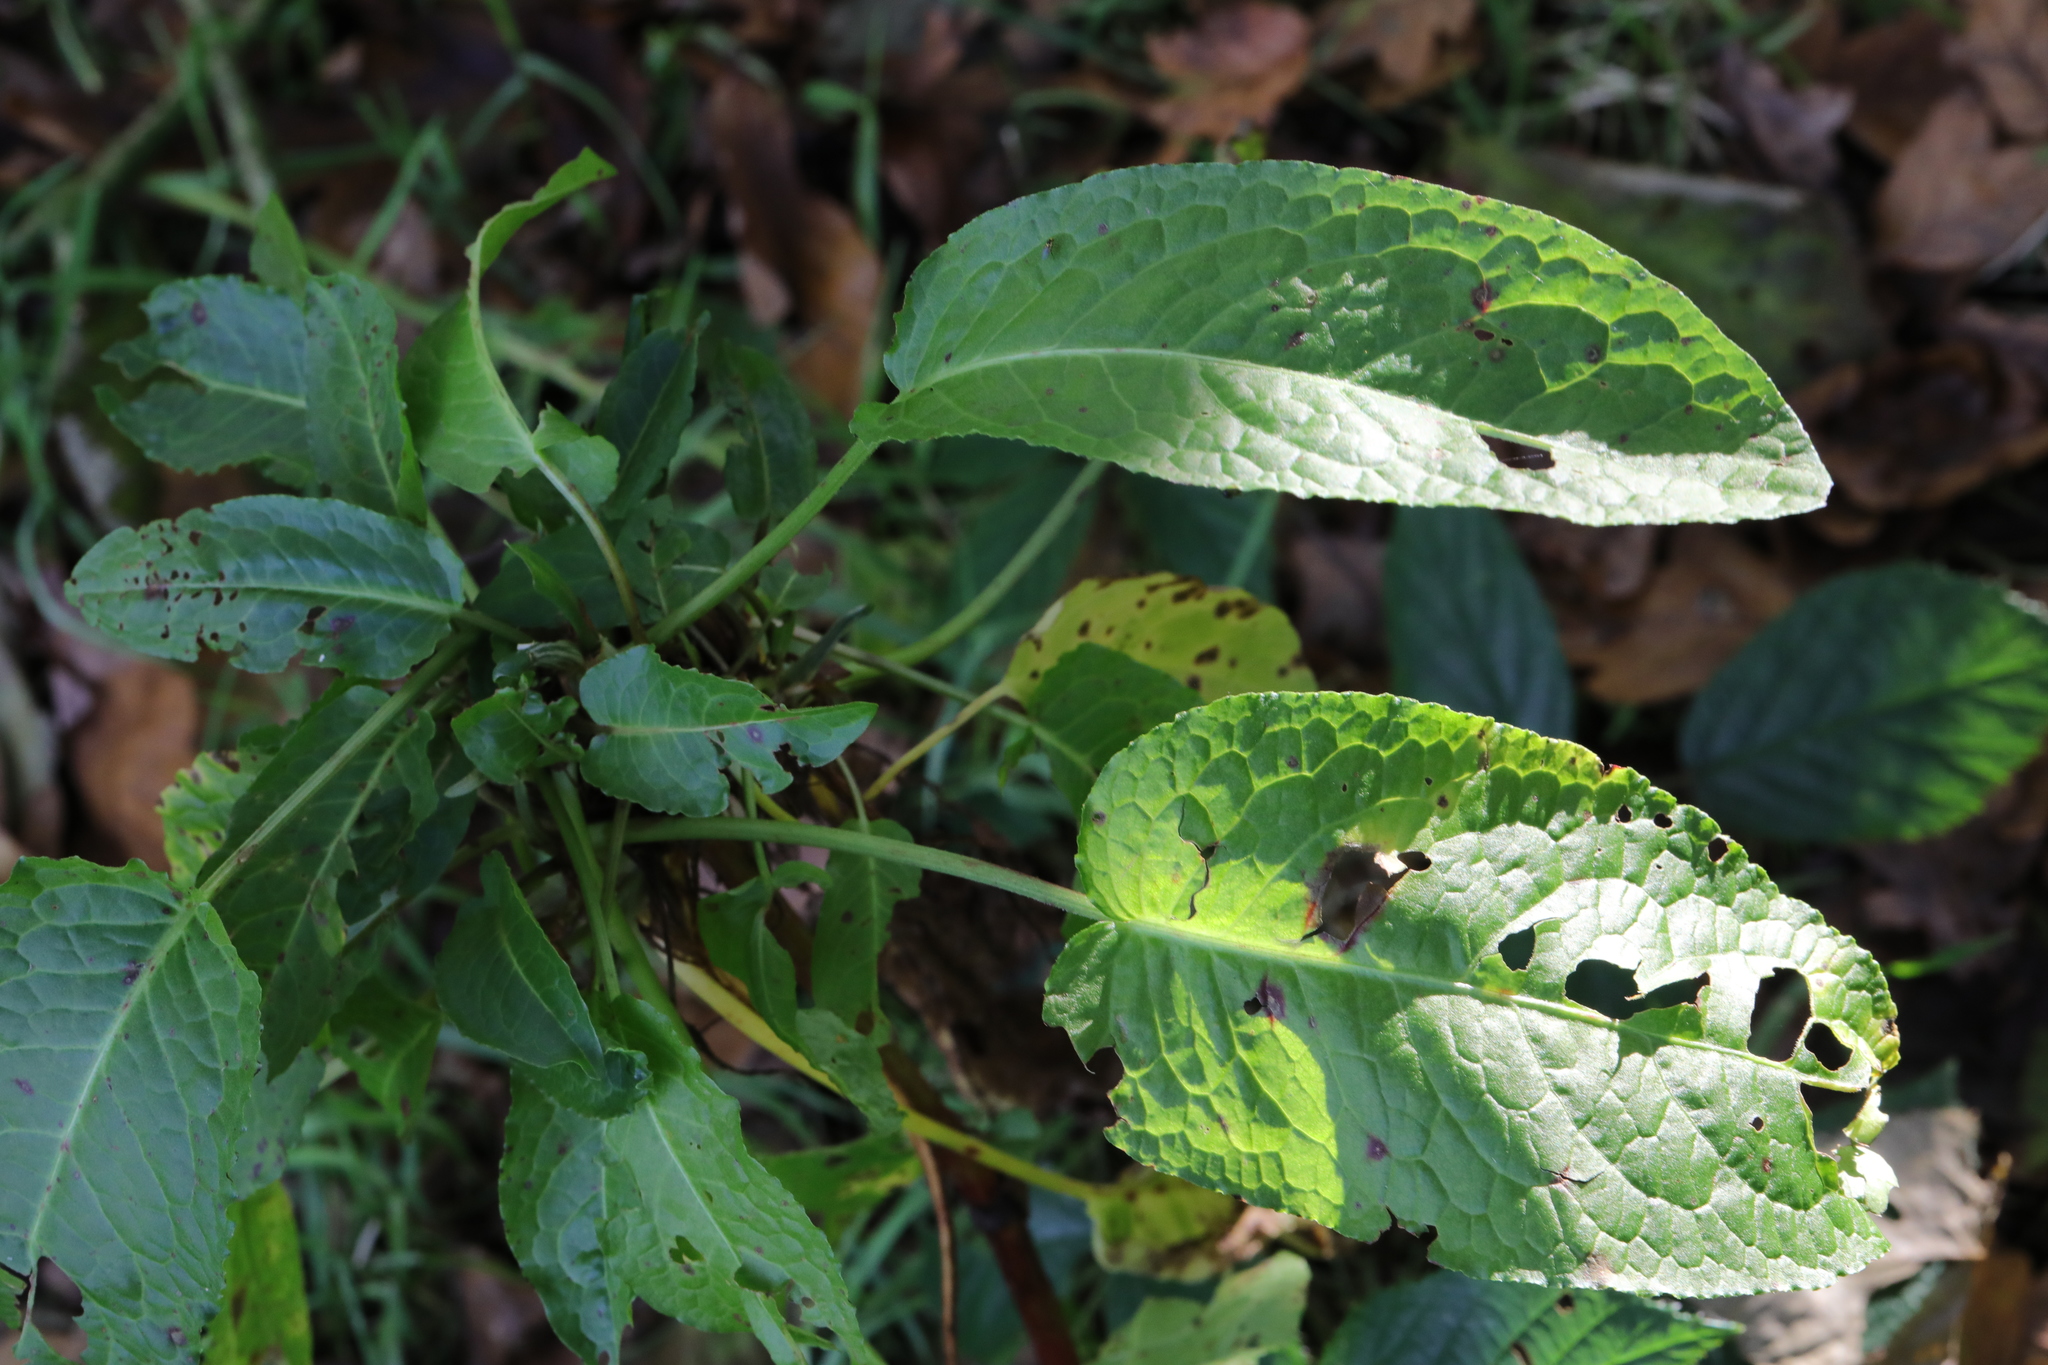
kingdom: Plantae
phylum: Tracheophyta
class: Magnoliopsida
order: Caryophyllales
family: Polygonaceae
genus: Rumex
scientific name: Rumex obtusifolius
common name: Bitter dock
